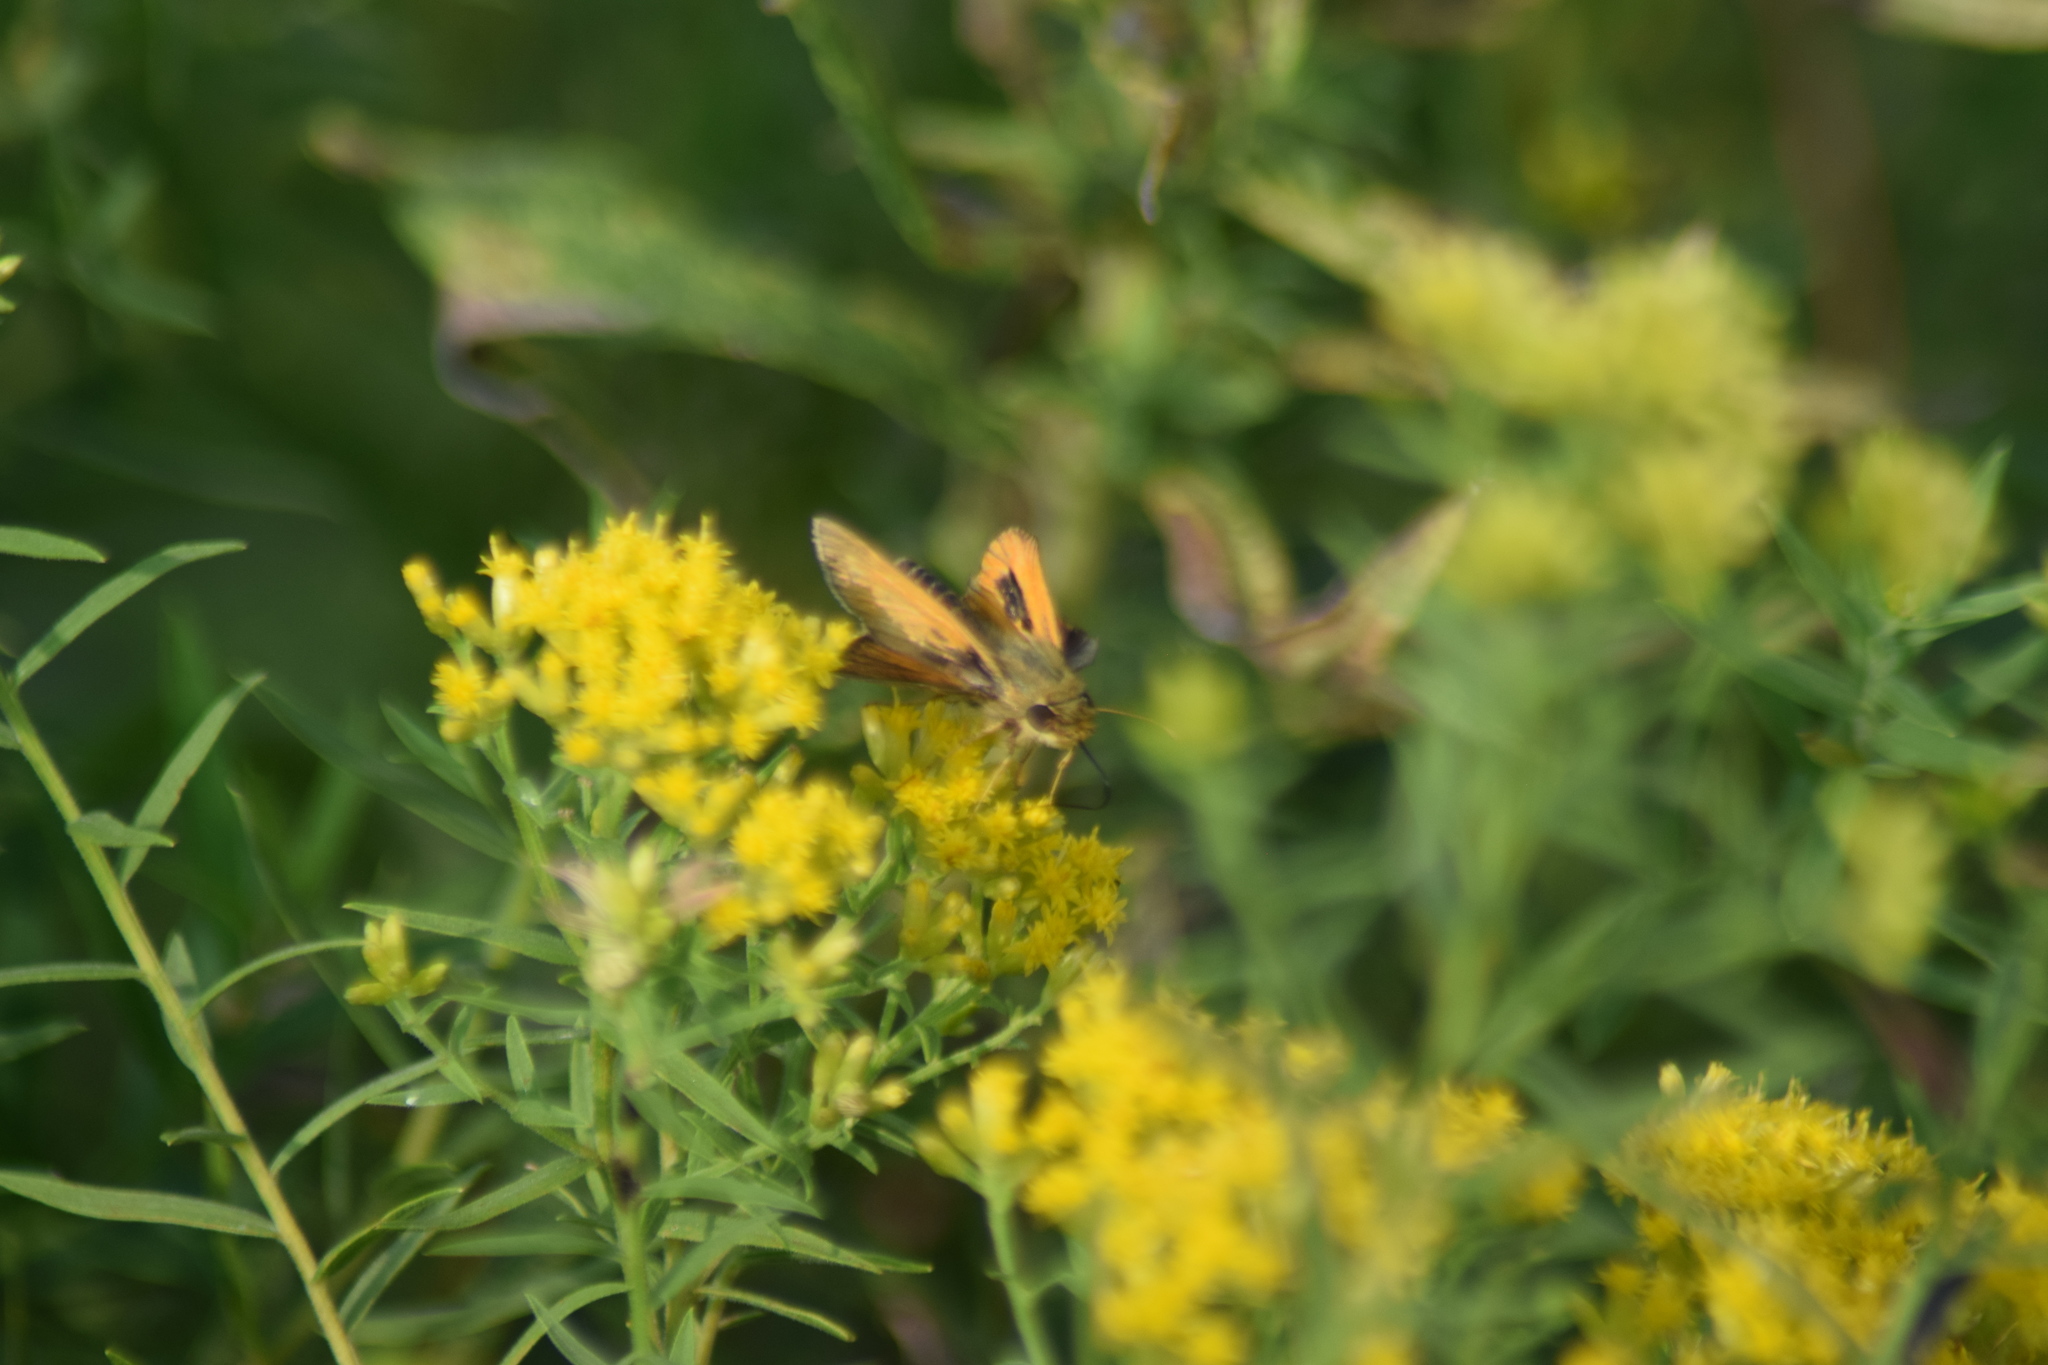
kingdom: Animalia
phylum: Arthropoda
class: Insecta
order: Lepidoptera
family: Hesperiidae
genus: Atalopedes
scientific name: Atalopedes
